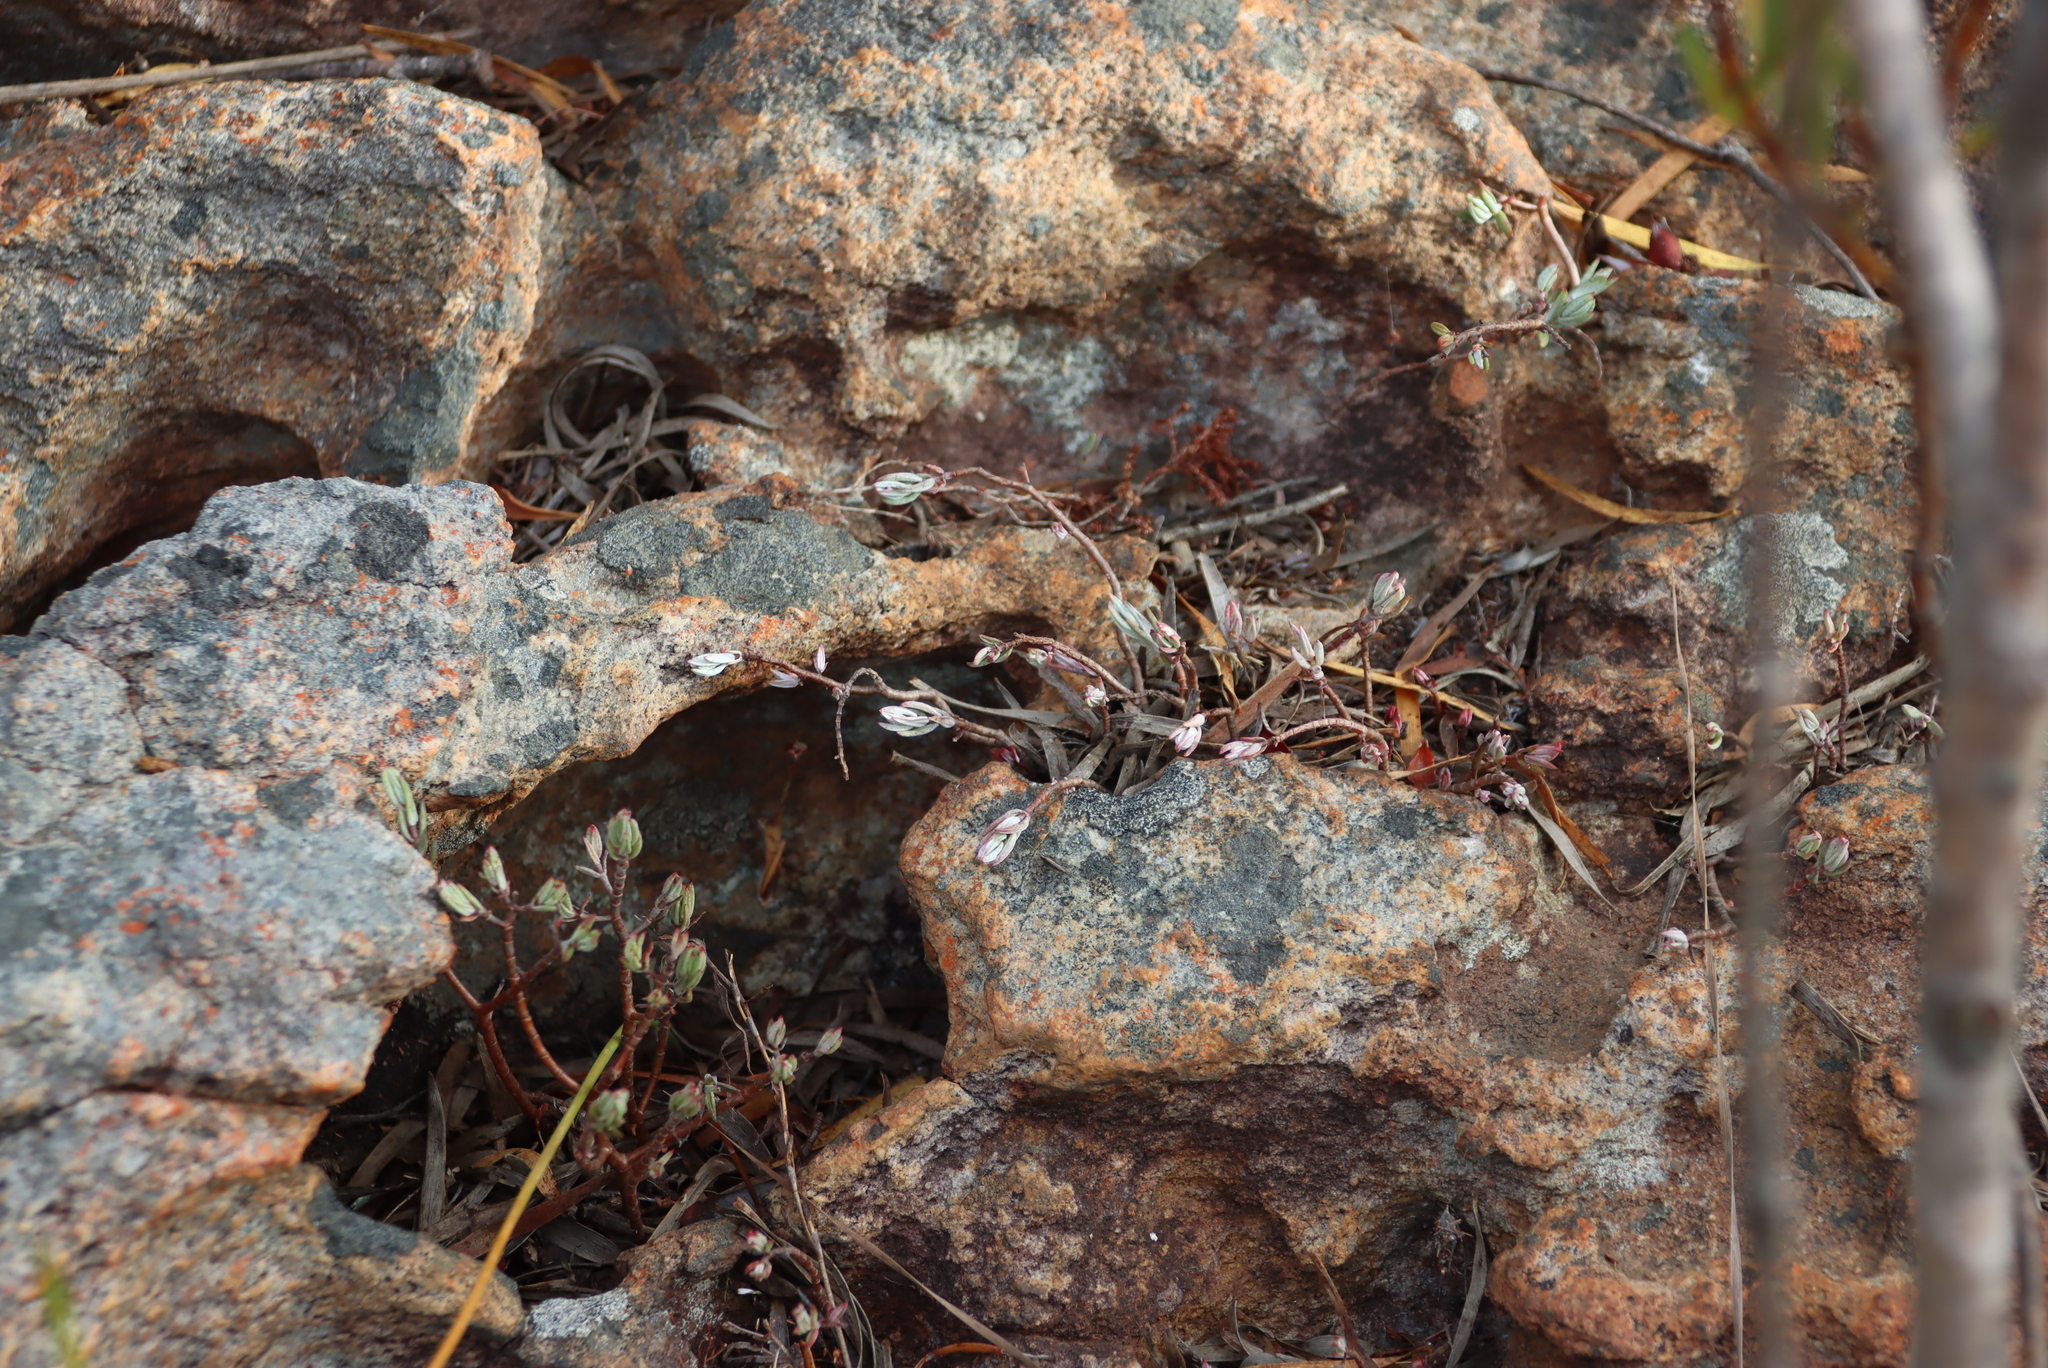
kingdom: Plantae
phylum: Tracheophyta
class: Magnoliopsida
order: Saxifragales
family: Crassulaceae
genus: Crassula
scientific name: Crassula biplanata
